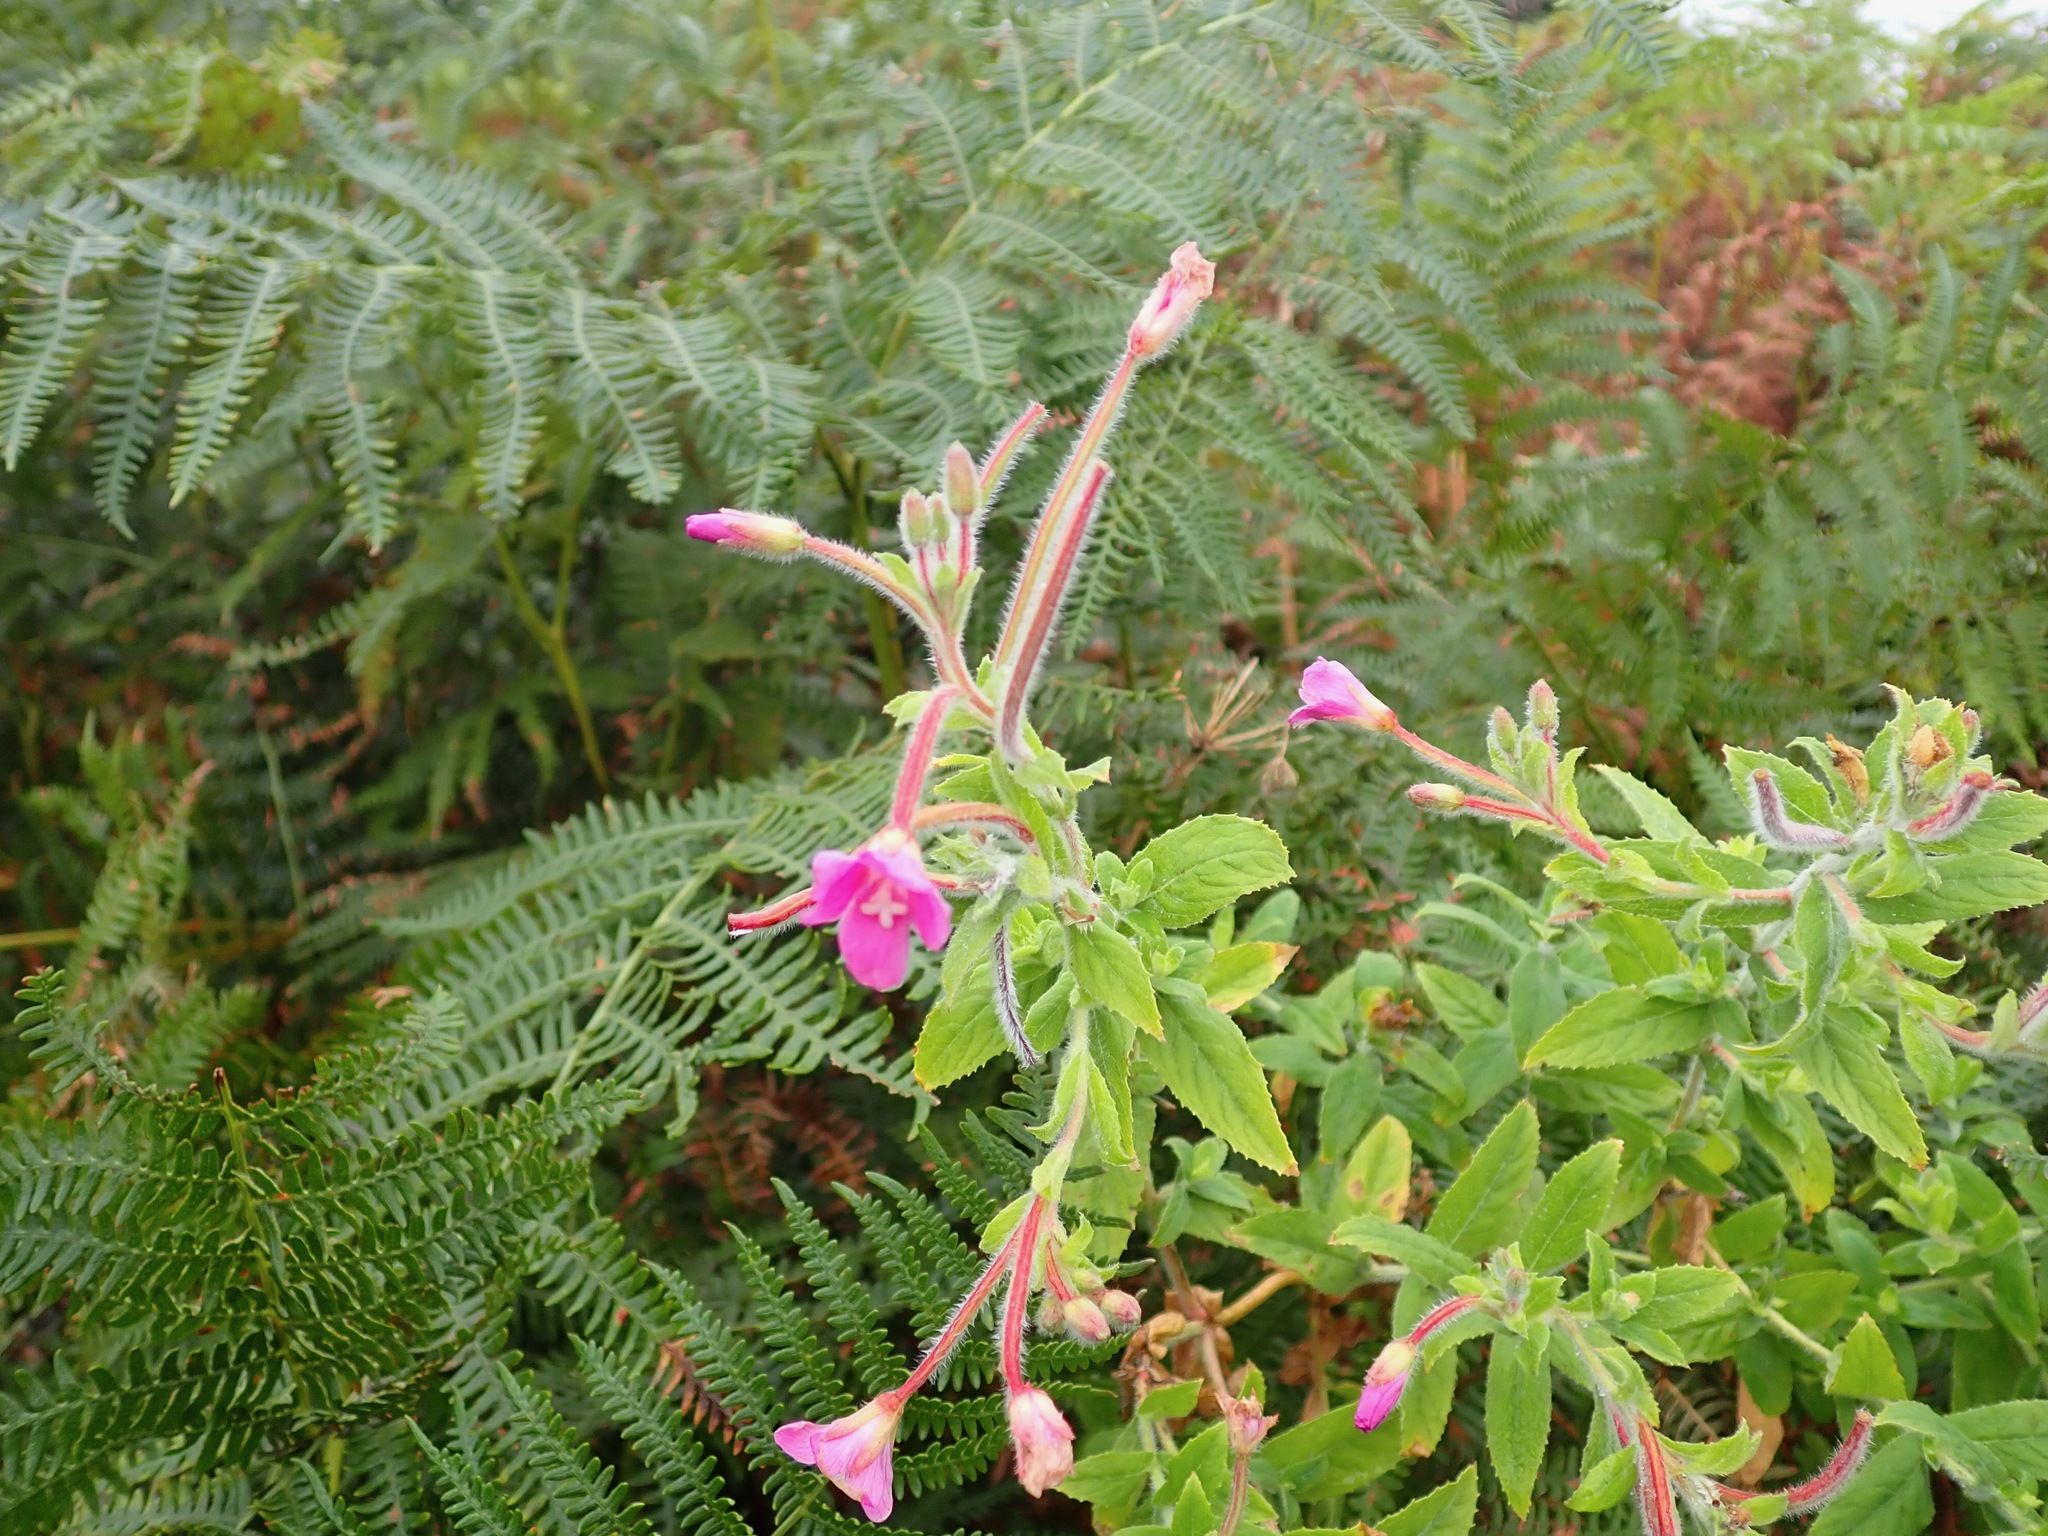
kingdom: Plantae
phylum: Tracheophyta
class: Magnoliopsida
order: Myrtales
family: Onagraceae
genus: Epilobium
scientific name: Epilobium hirsutum
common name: Great willowherb
